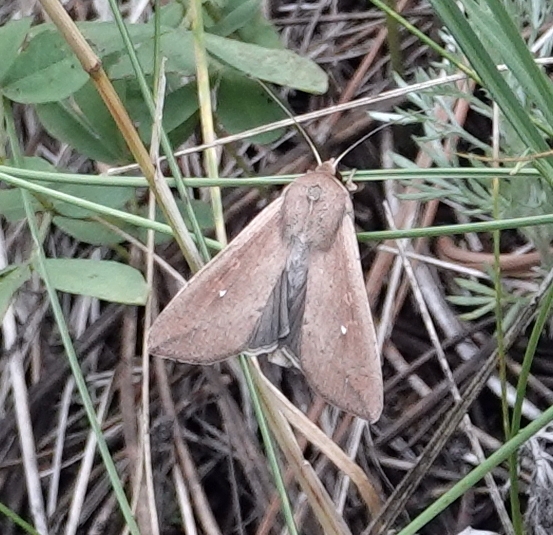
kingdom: Animalia
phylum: Arthropoda
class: Insecta
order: Lepidoptera
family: Noctuidae
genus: Mythimna
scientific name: Mythimna unipuncta
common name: White-speck
